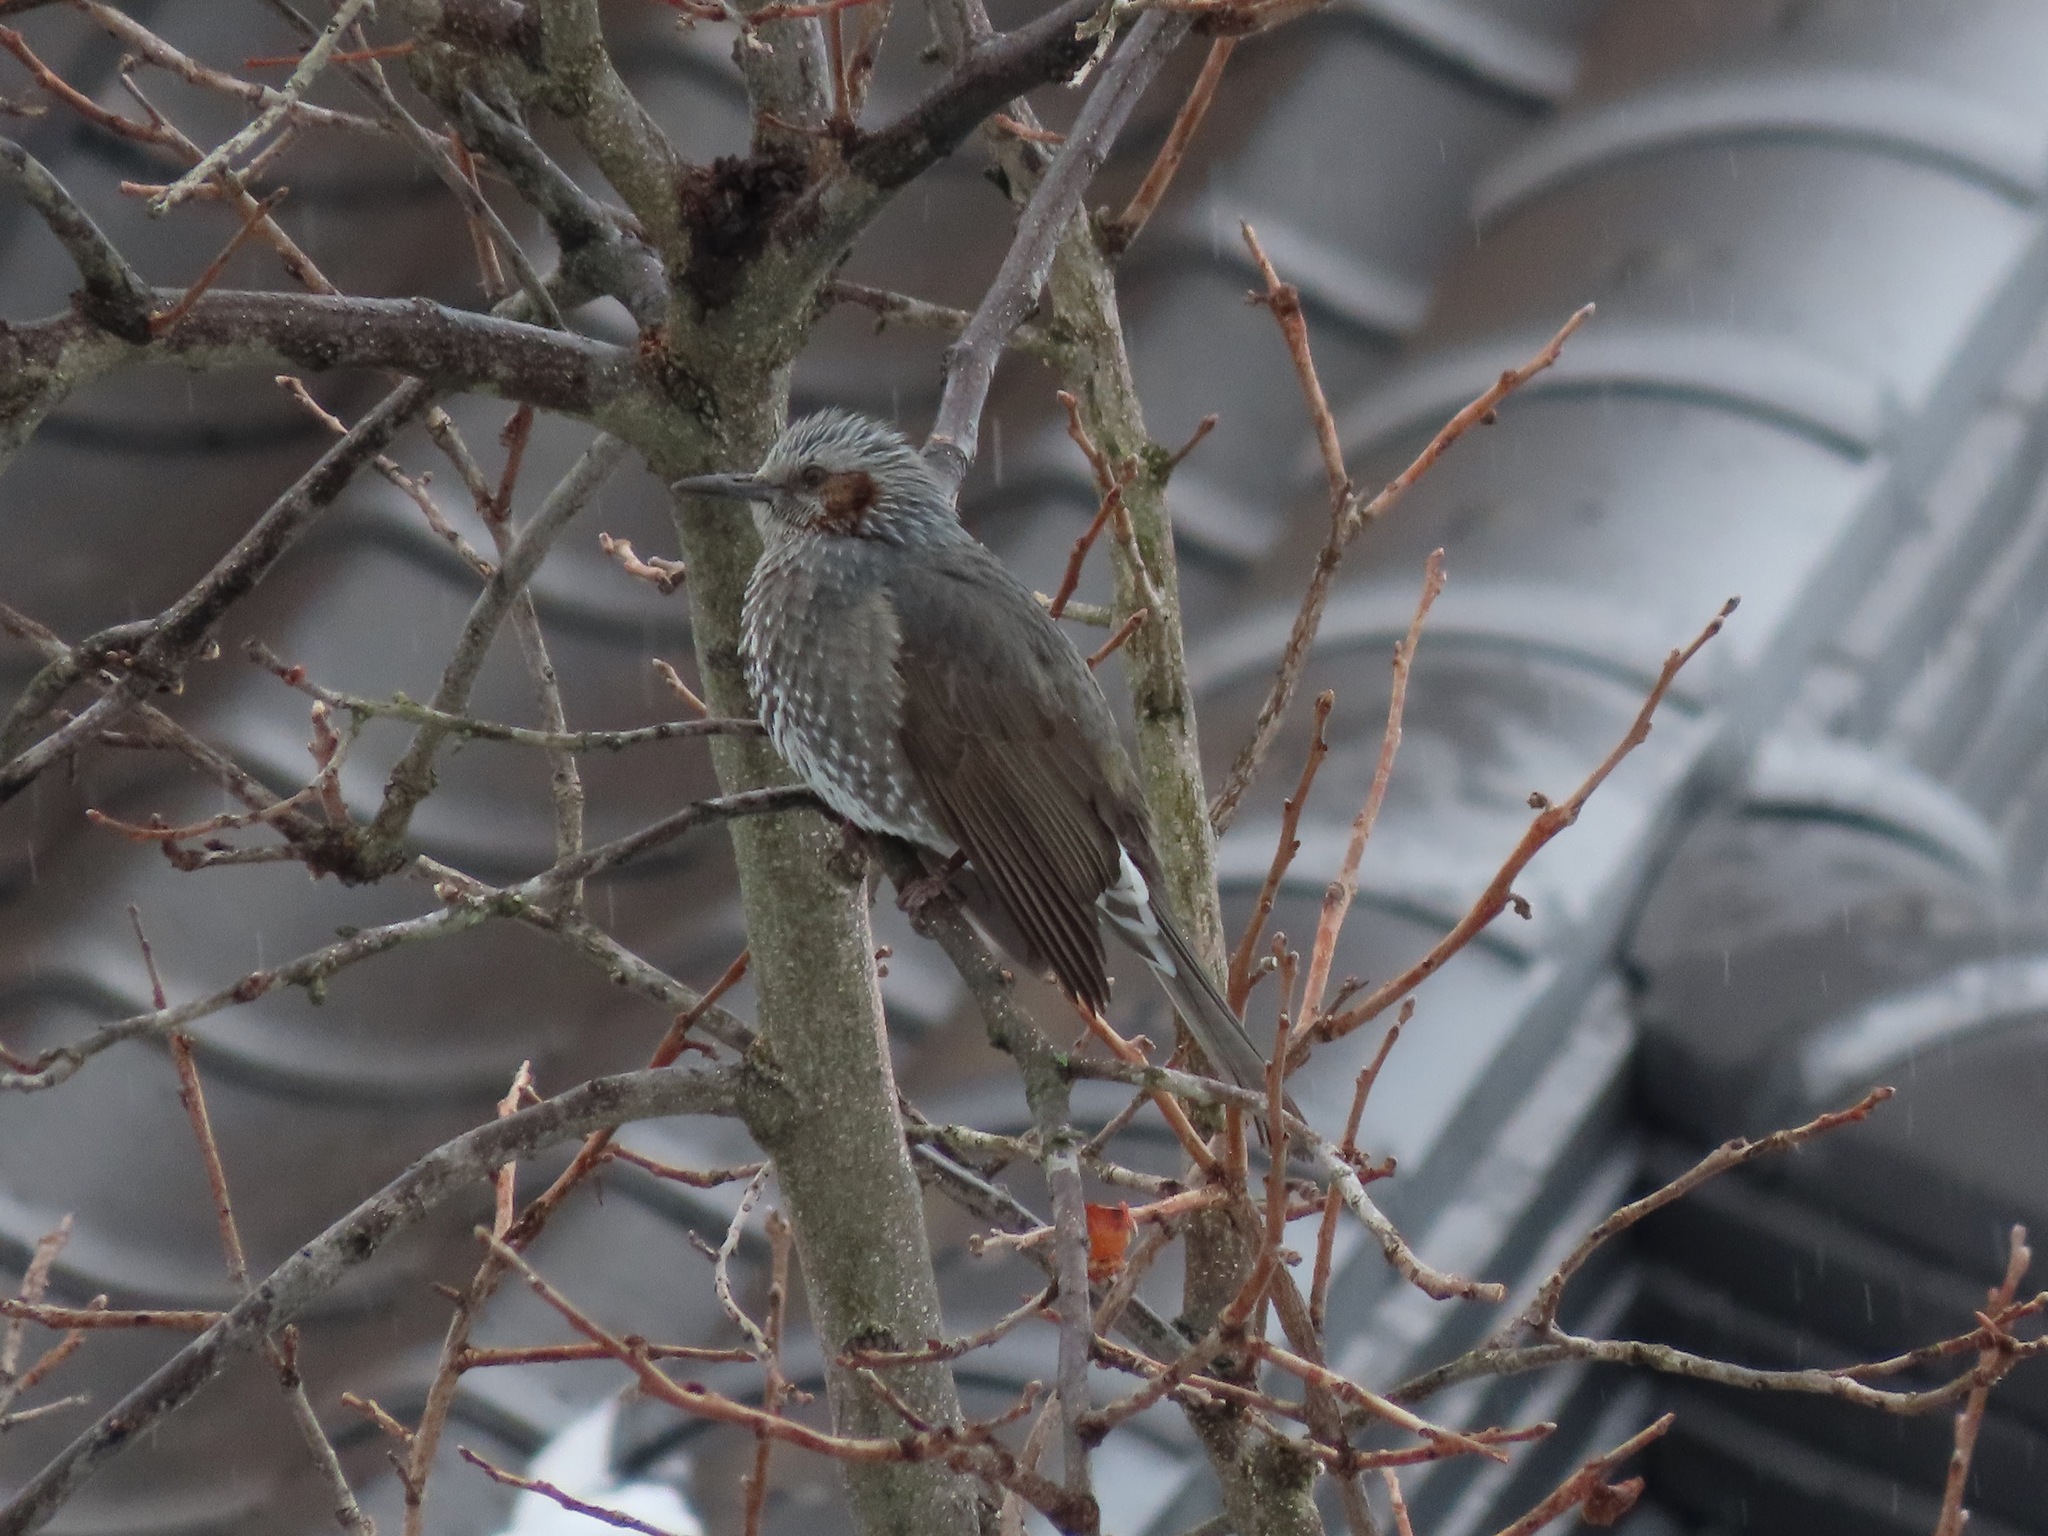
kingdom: Animalia
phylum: Chordata
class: Aves
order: Passeriformes
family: Pycnonotidae
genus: Hypsipetes
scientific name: Hypsipetes amaurotis
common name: Brown-eared bulbul
